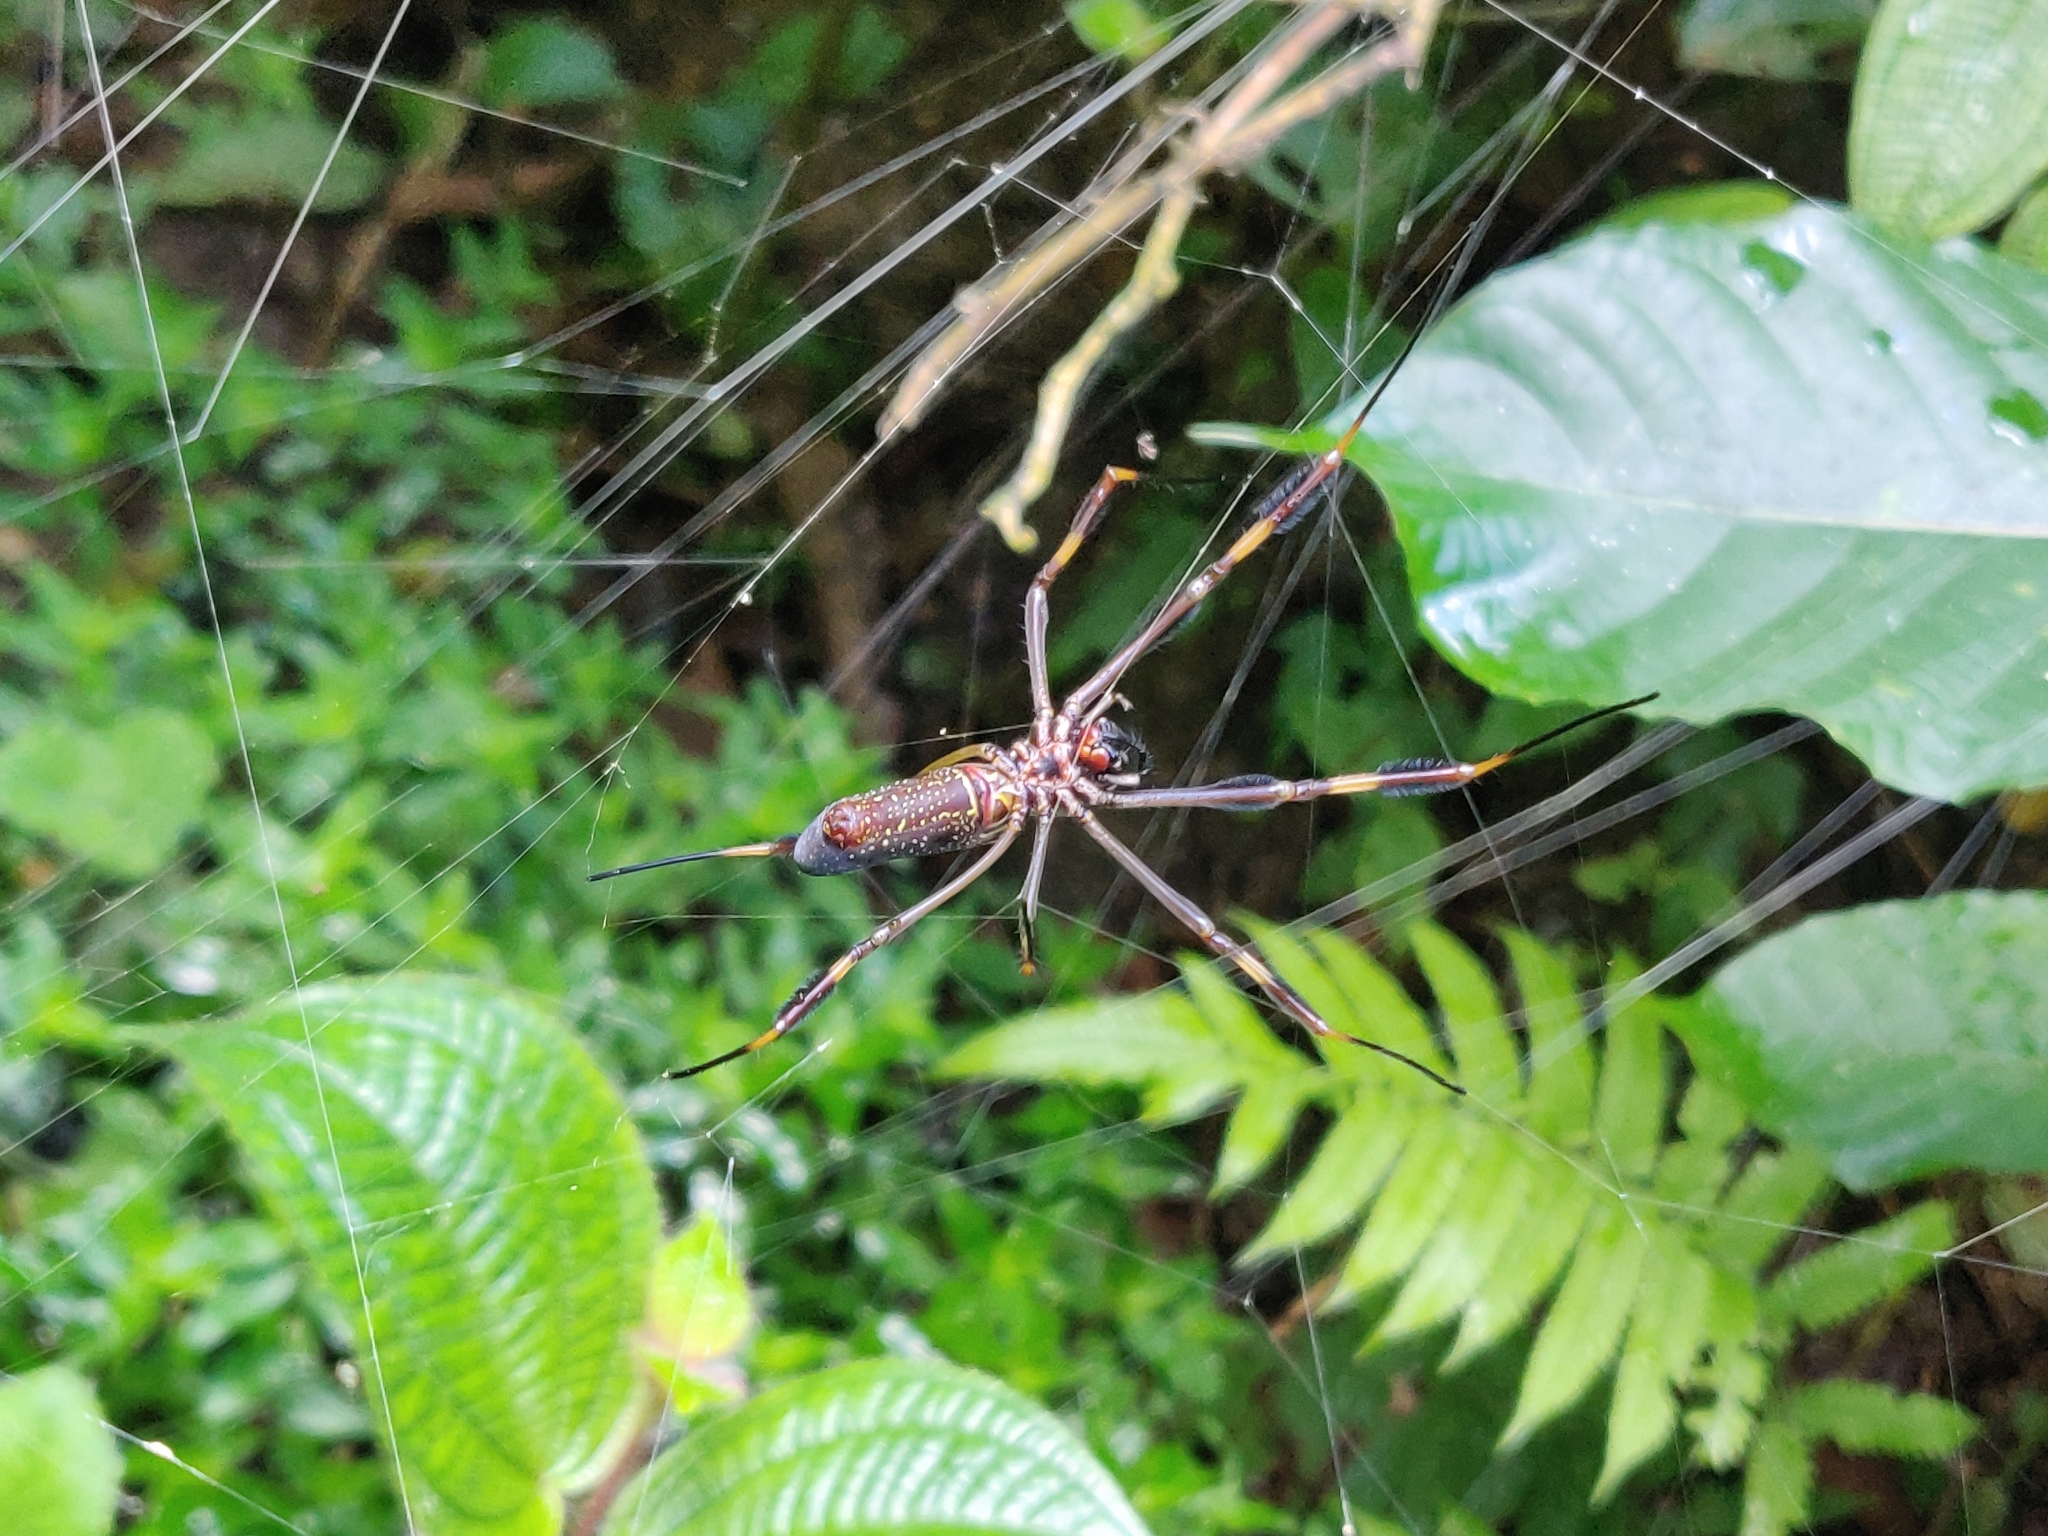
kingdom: Animalia
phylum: Arthropoda
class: Arachnida
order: Araneae
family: Araneidae
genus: Trichonephila
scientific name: Trichonephila clavipes
